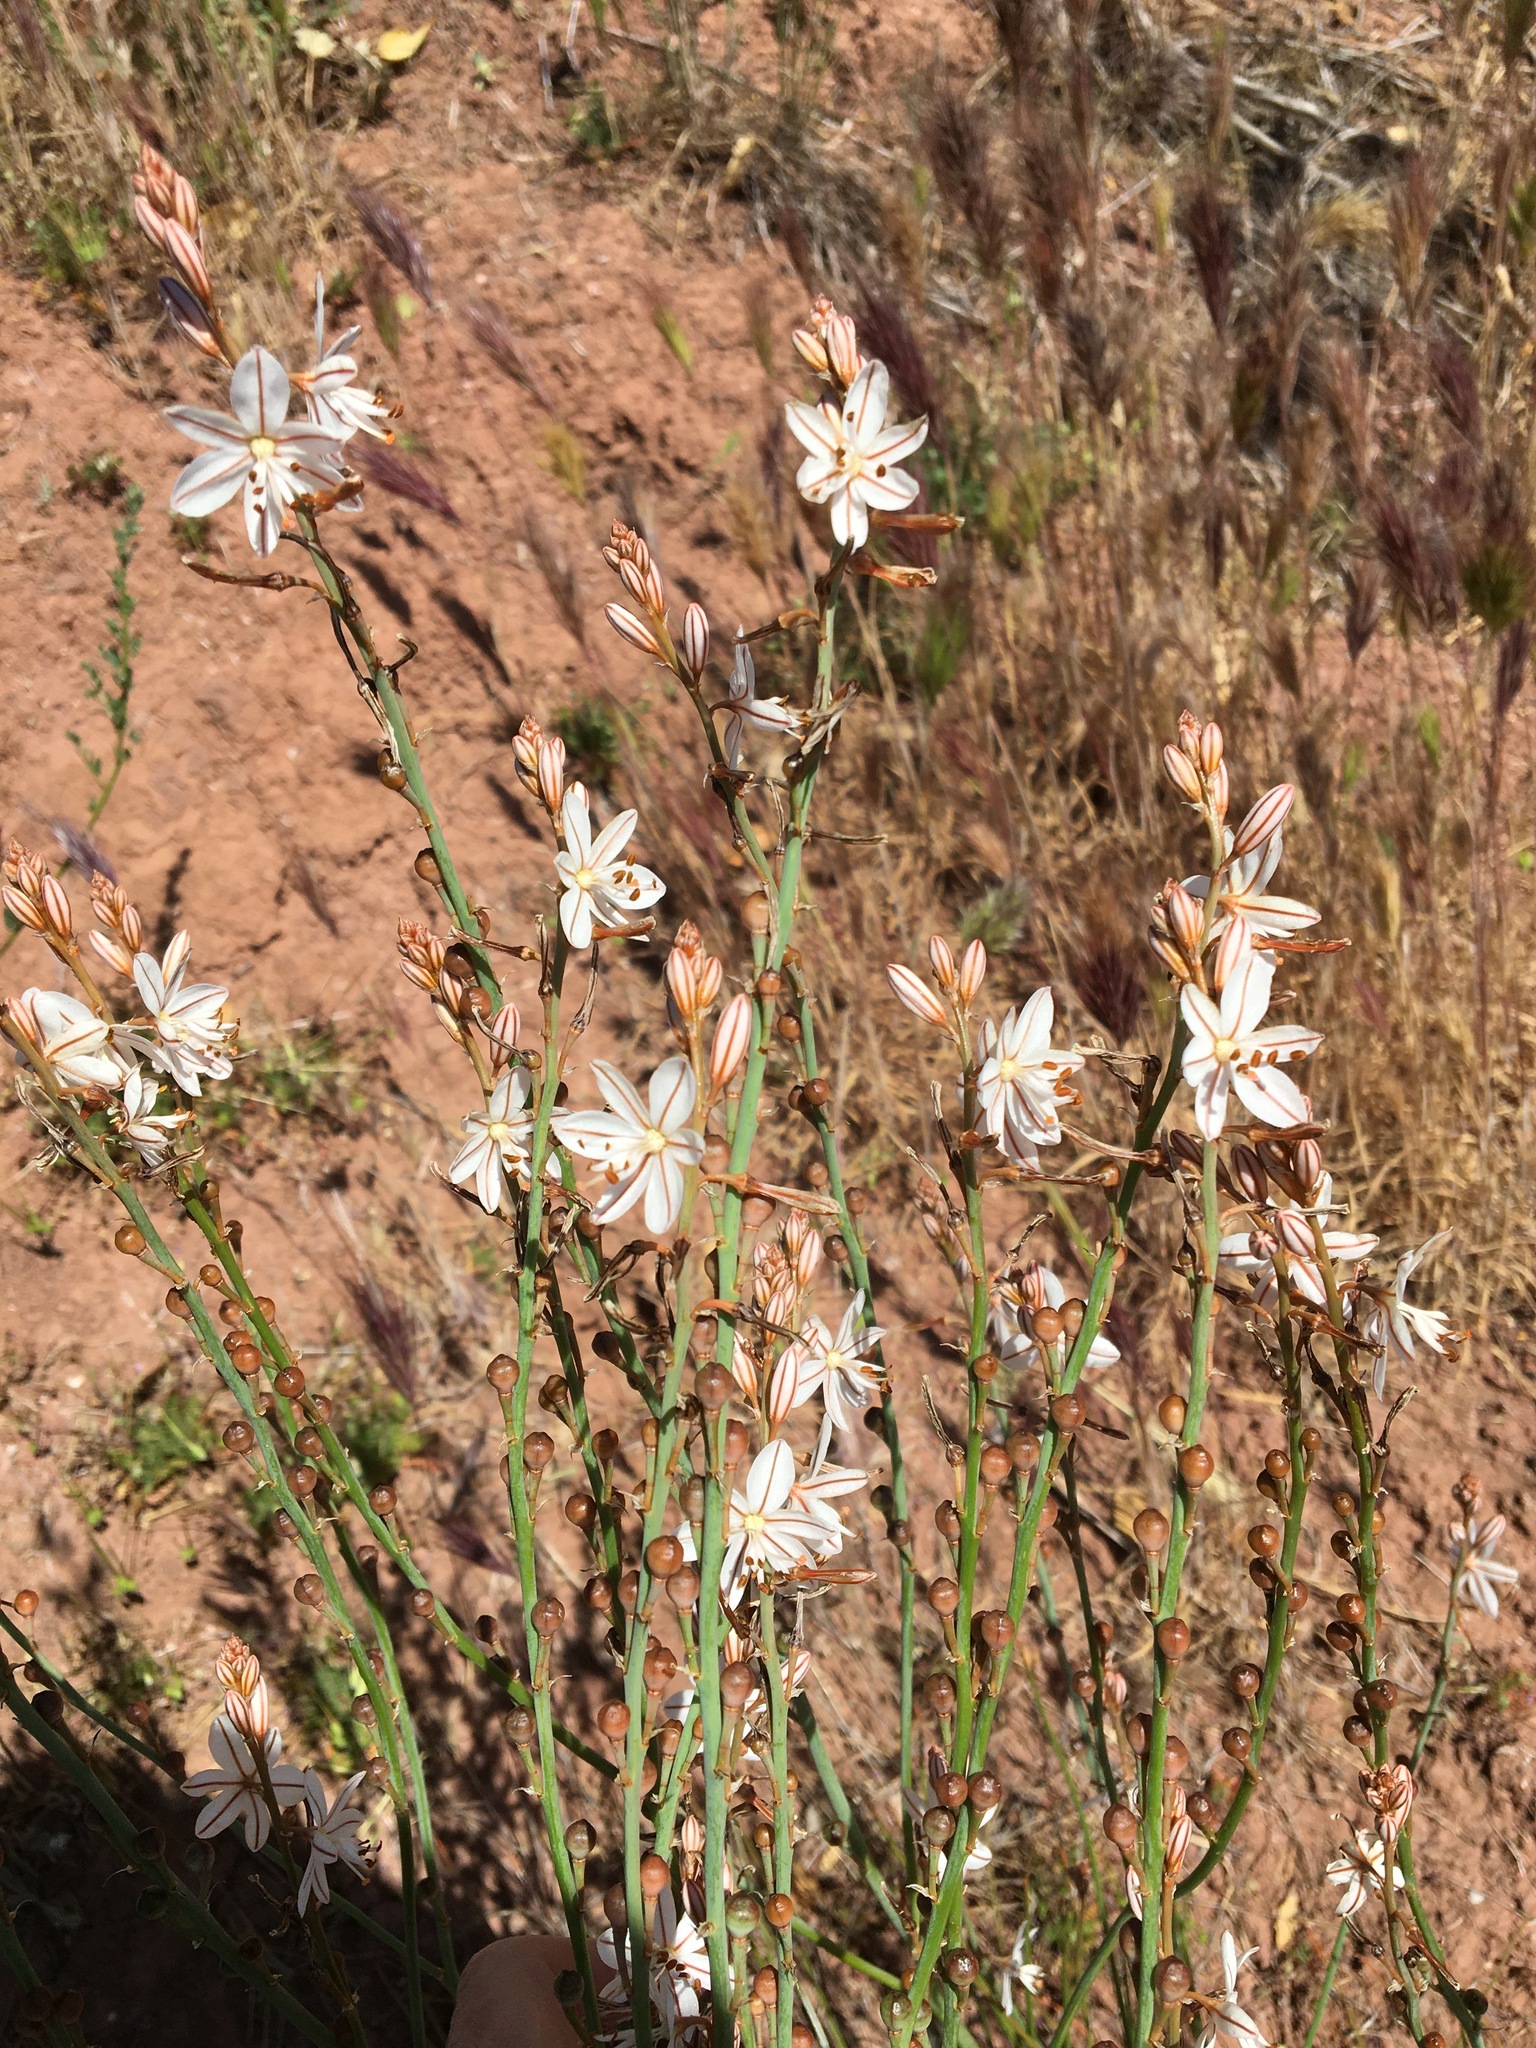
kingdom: Plantae
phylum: Tracheophyta
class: Liliopsida
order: Asparagales
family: Asphodelaceae
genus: Asphodelus
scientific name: Asphodelus fistulosus
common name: Onionweed
